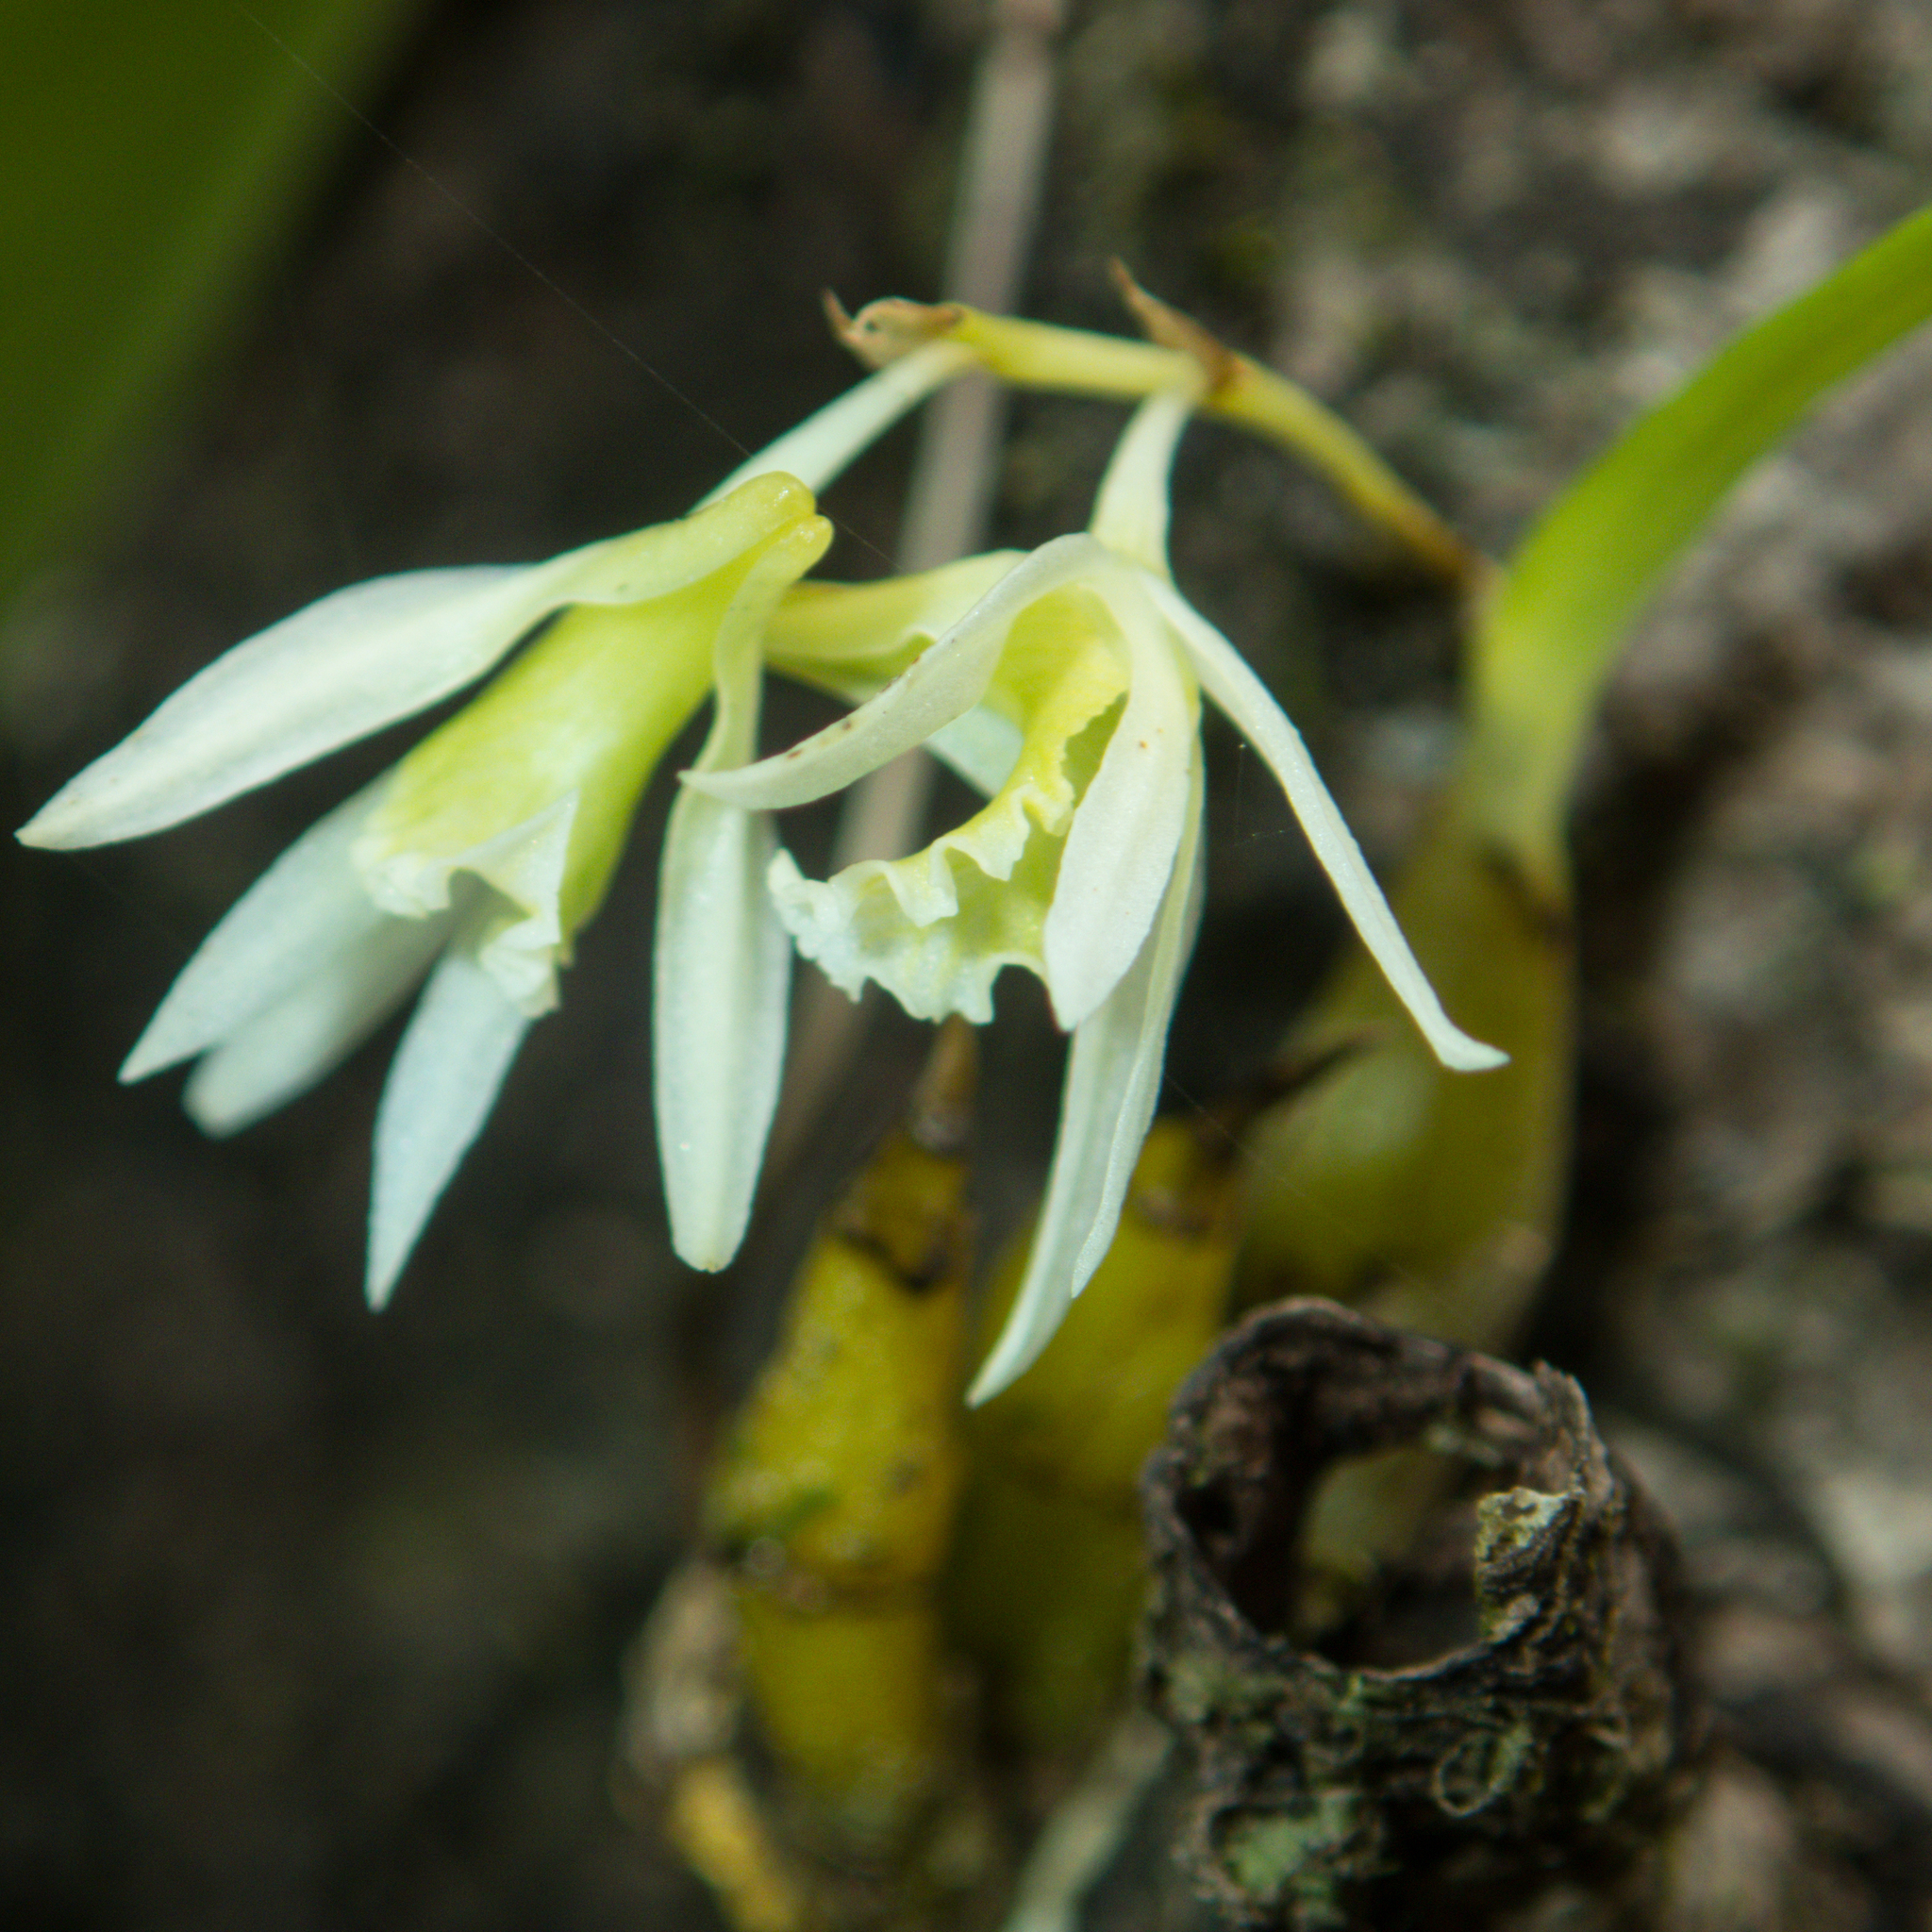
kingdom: Plantae
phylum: Tracheophyta
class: Liliopsida
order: Asparagales
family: Orchidaceae
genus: Dendrobium
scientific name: Dendrobium kratense
